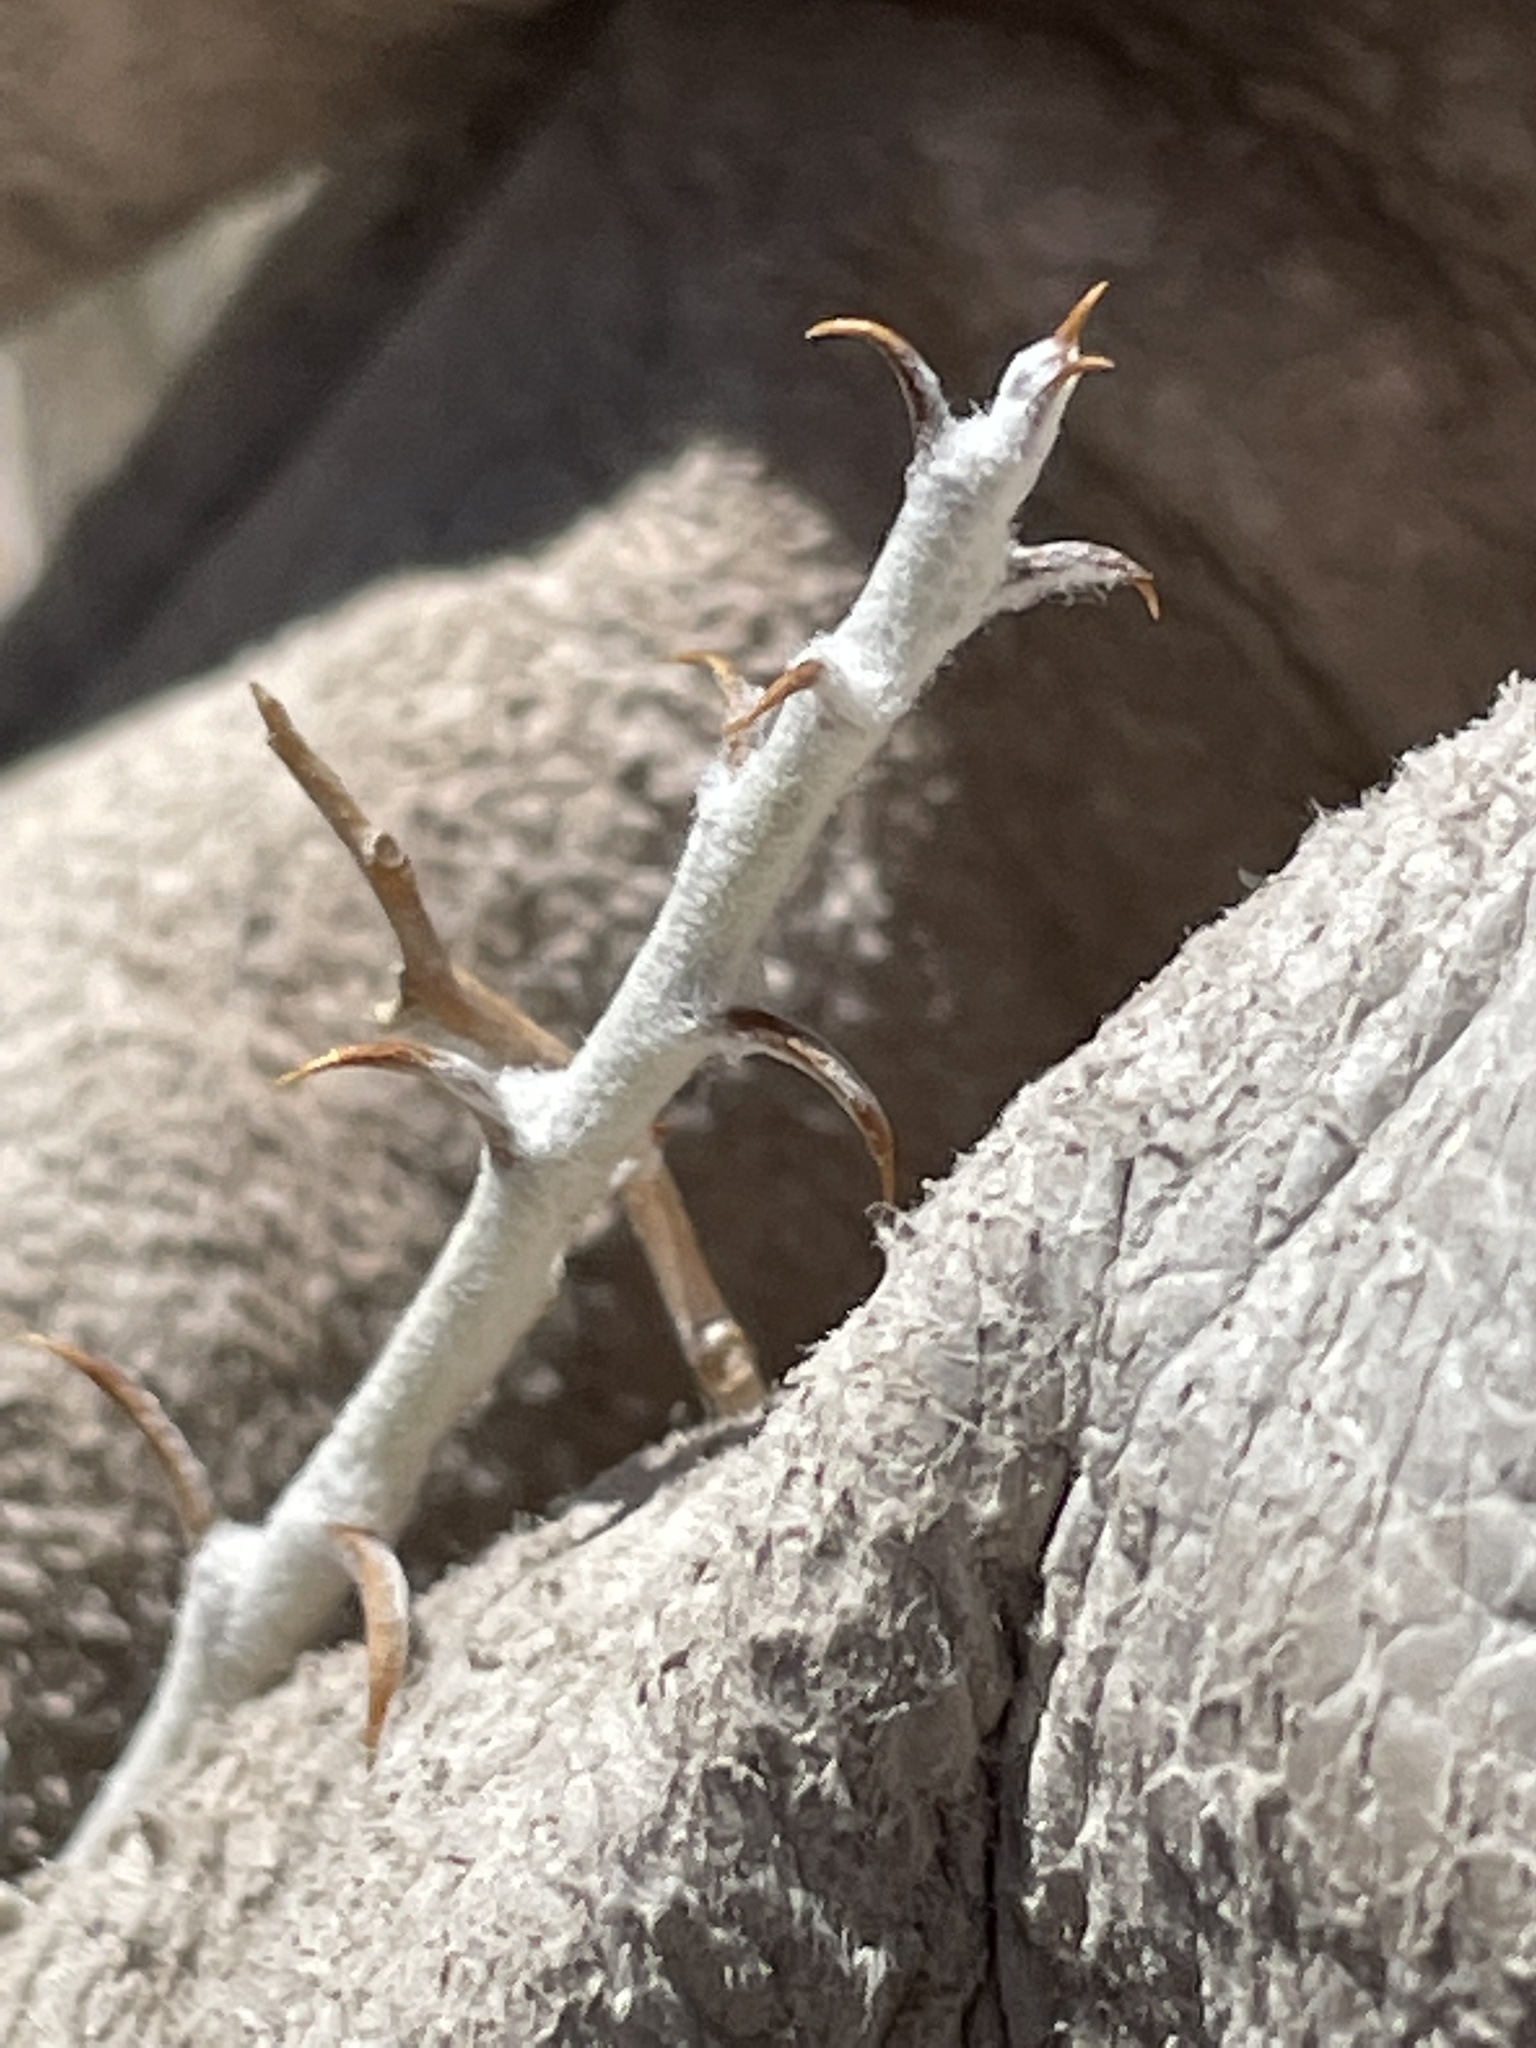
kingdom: Plantae
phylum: Tracheophyta
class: Magnoliopsida
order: Asterales
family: Asteraceae
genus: Tetradymia
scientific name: Tetradymia spinosa
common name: Thorny horsebrush
